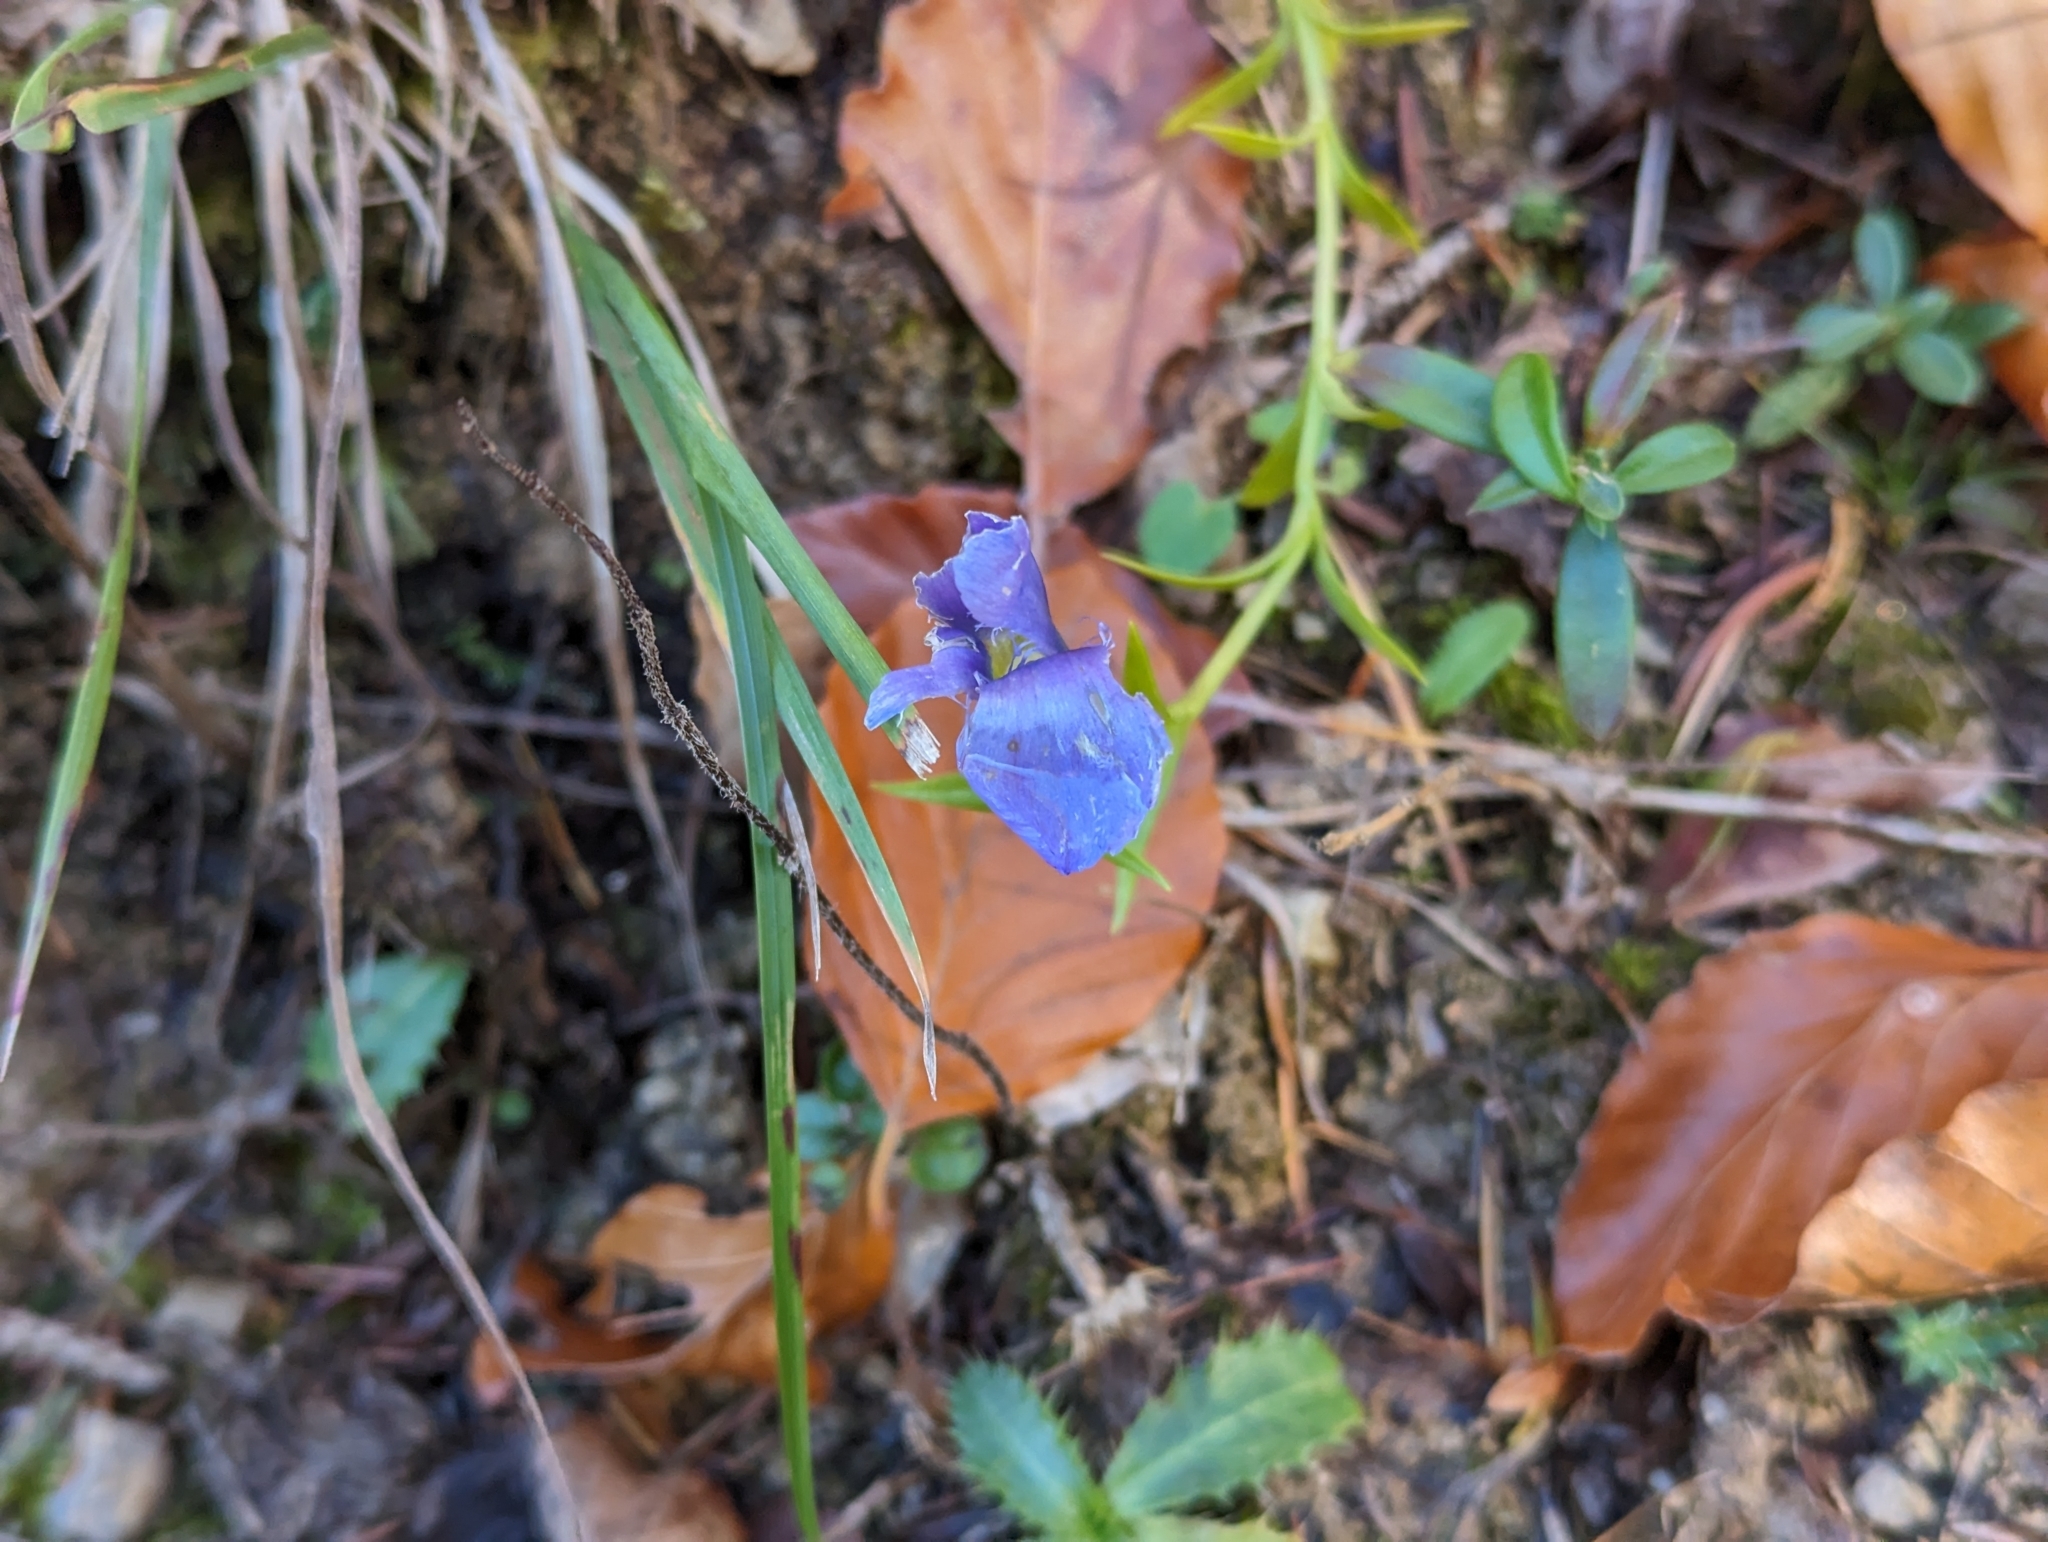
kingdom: Plantae
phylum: Tracheophyta
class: Magnoliopsida
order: Gentianales
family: Gentianaceae
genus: Gentianopsis
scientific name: Gentianopsis ciliata
